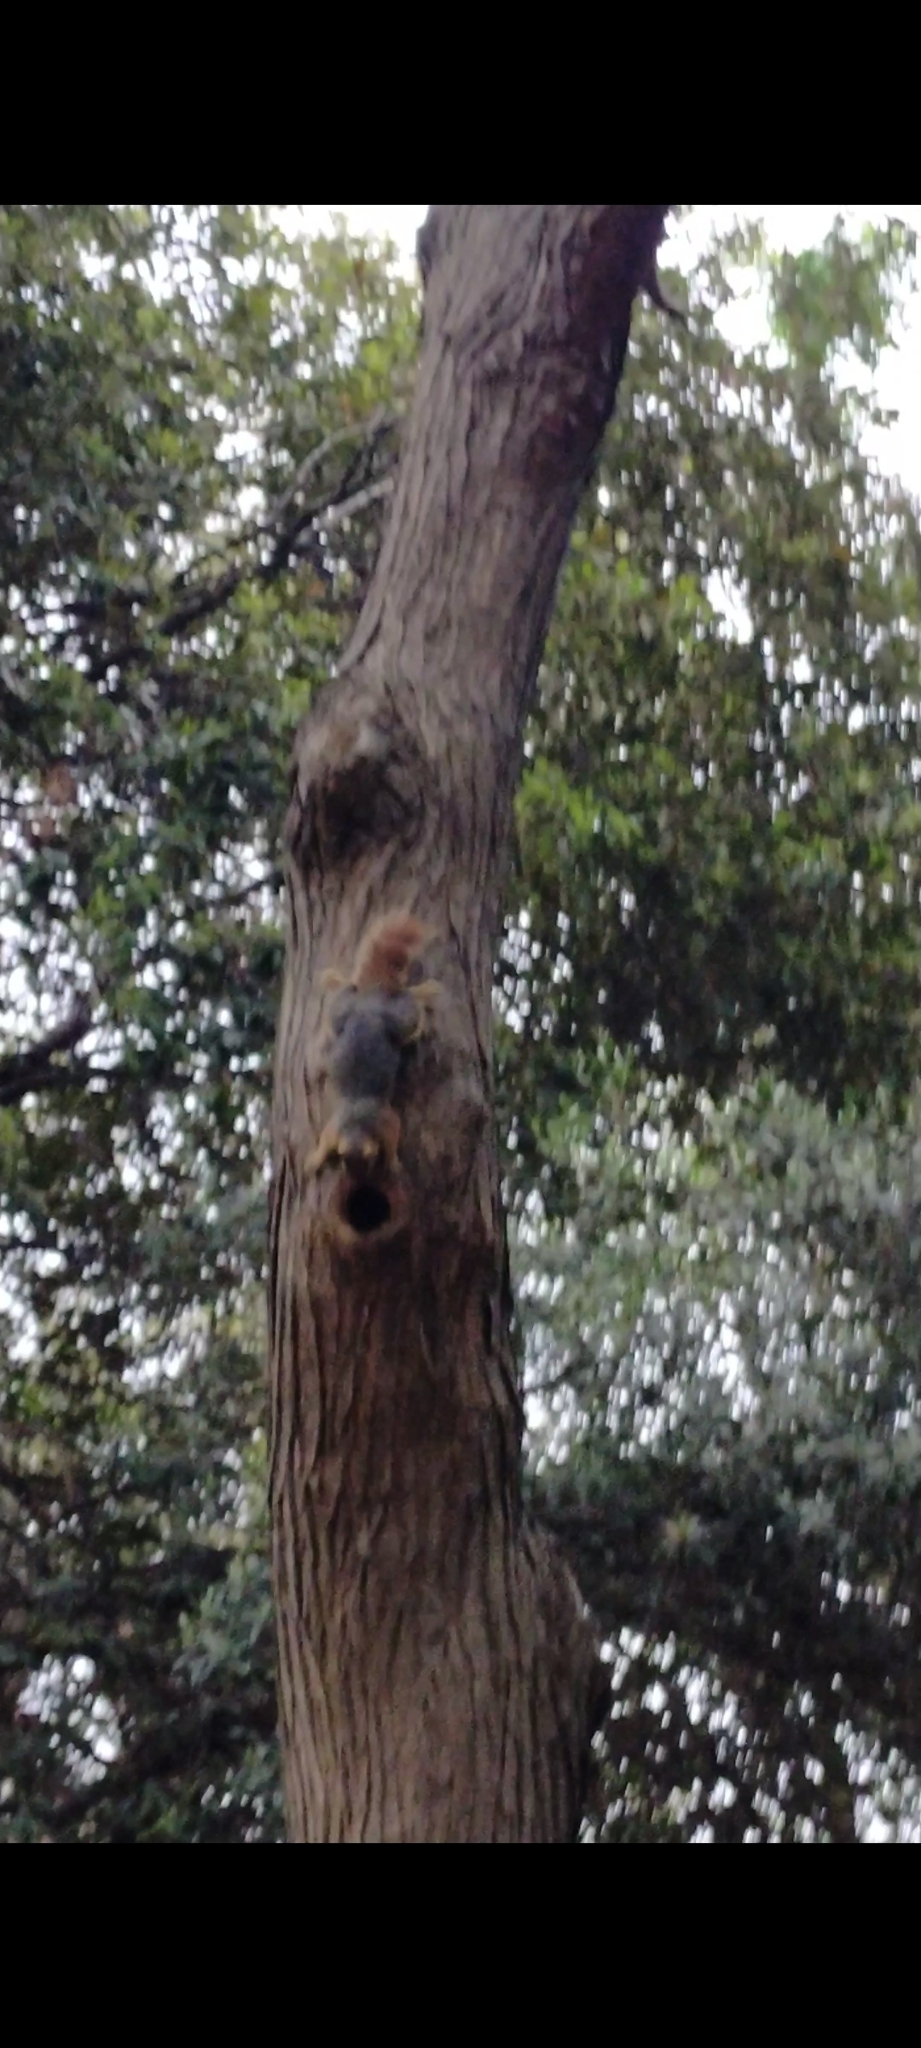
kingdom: Animalia
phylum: Chordata
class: Mammalia
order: Rodentia
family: Sciuridae
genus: Sciurus
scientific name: Sciurus anomalus
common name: Caucasian squirrel
